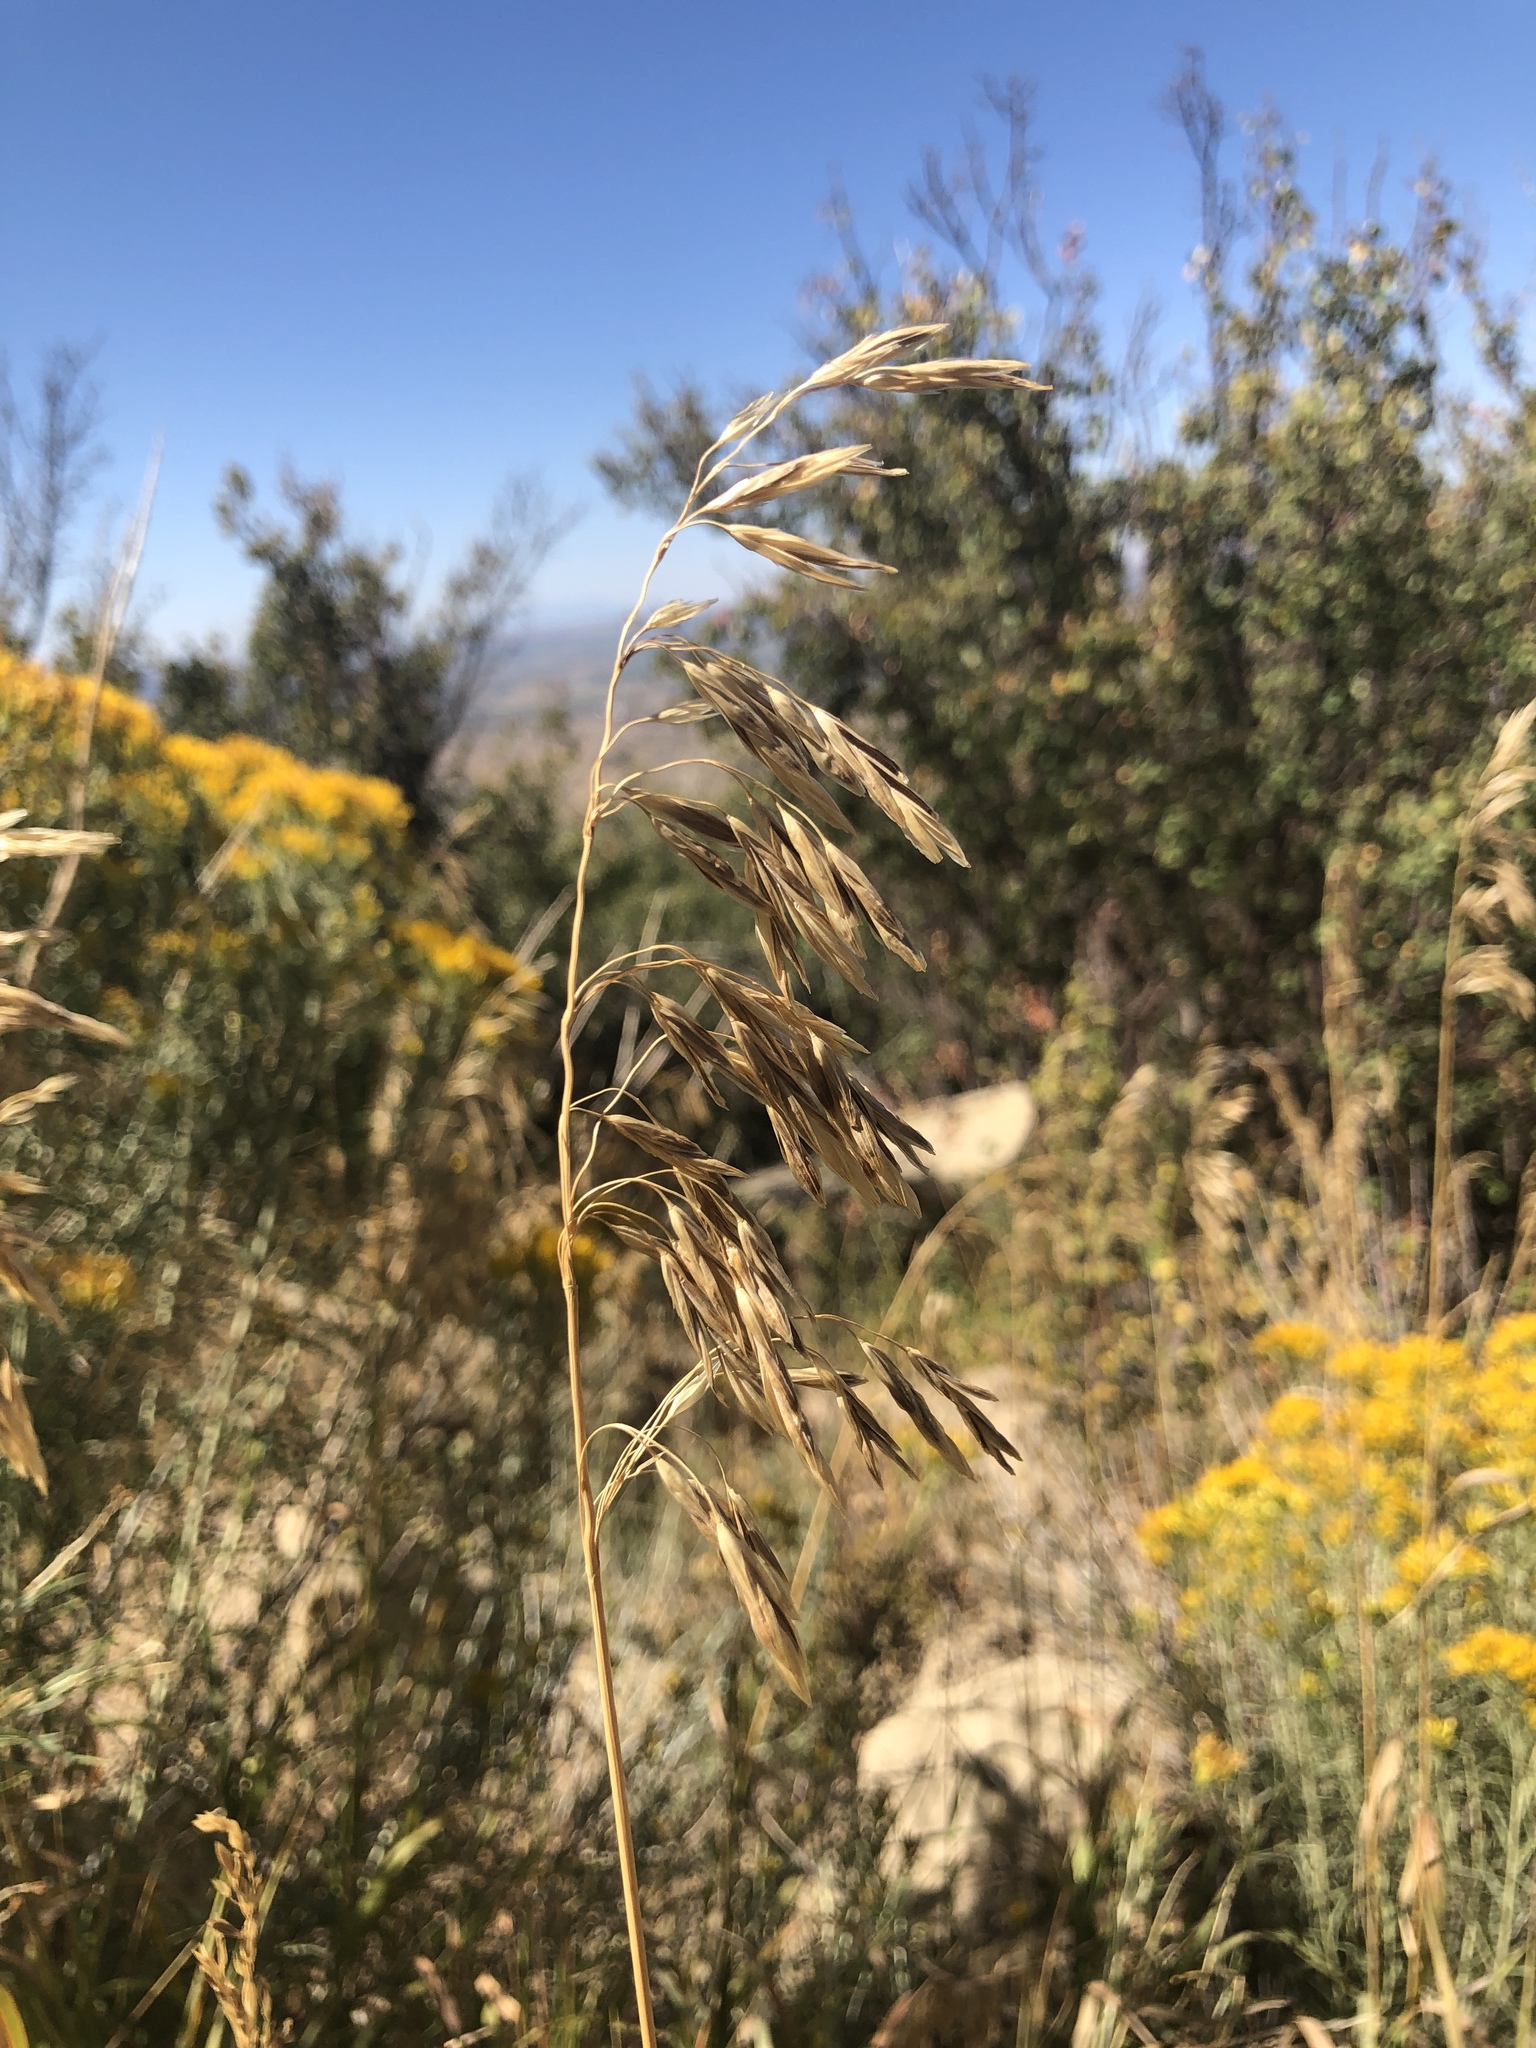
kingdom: Plantae
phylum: Tracheophyta
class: Liliopsida
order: Poales
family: Poaceae
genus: Bromus
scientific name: Bromus inermis
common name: Smooth brome
